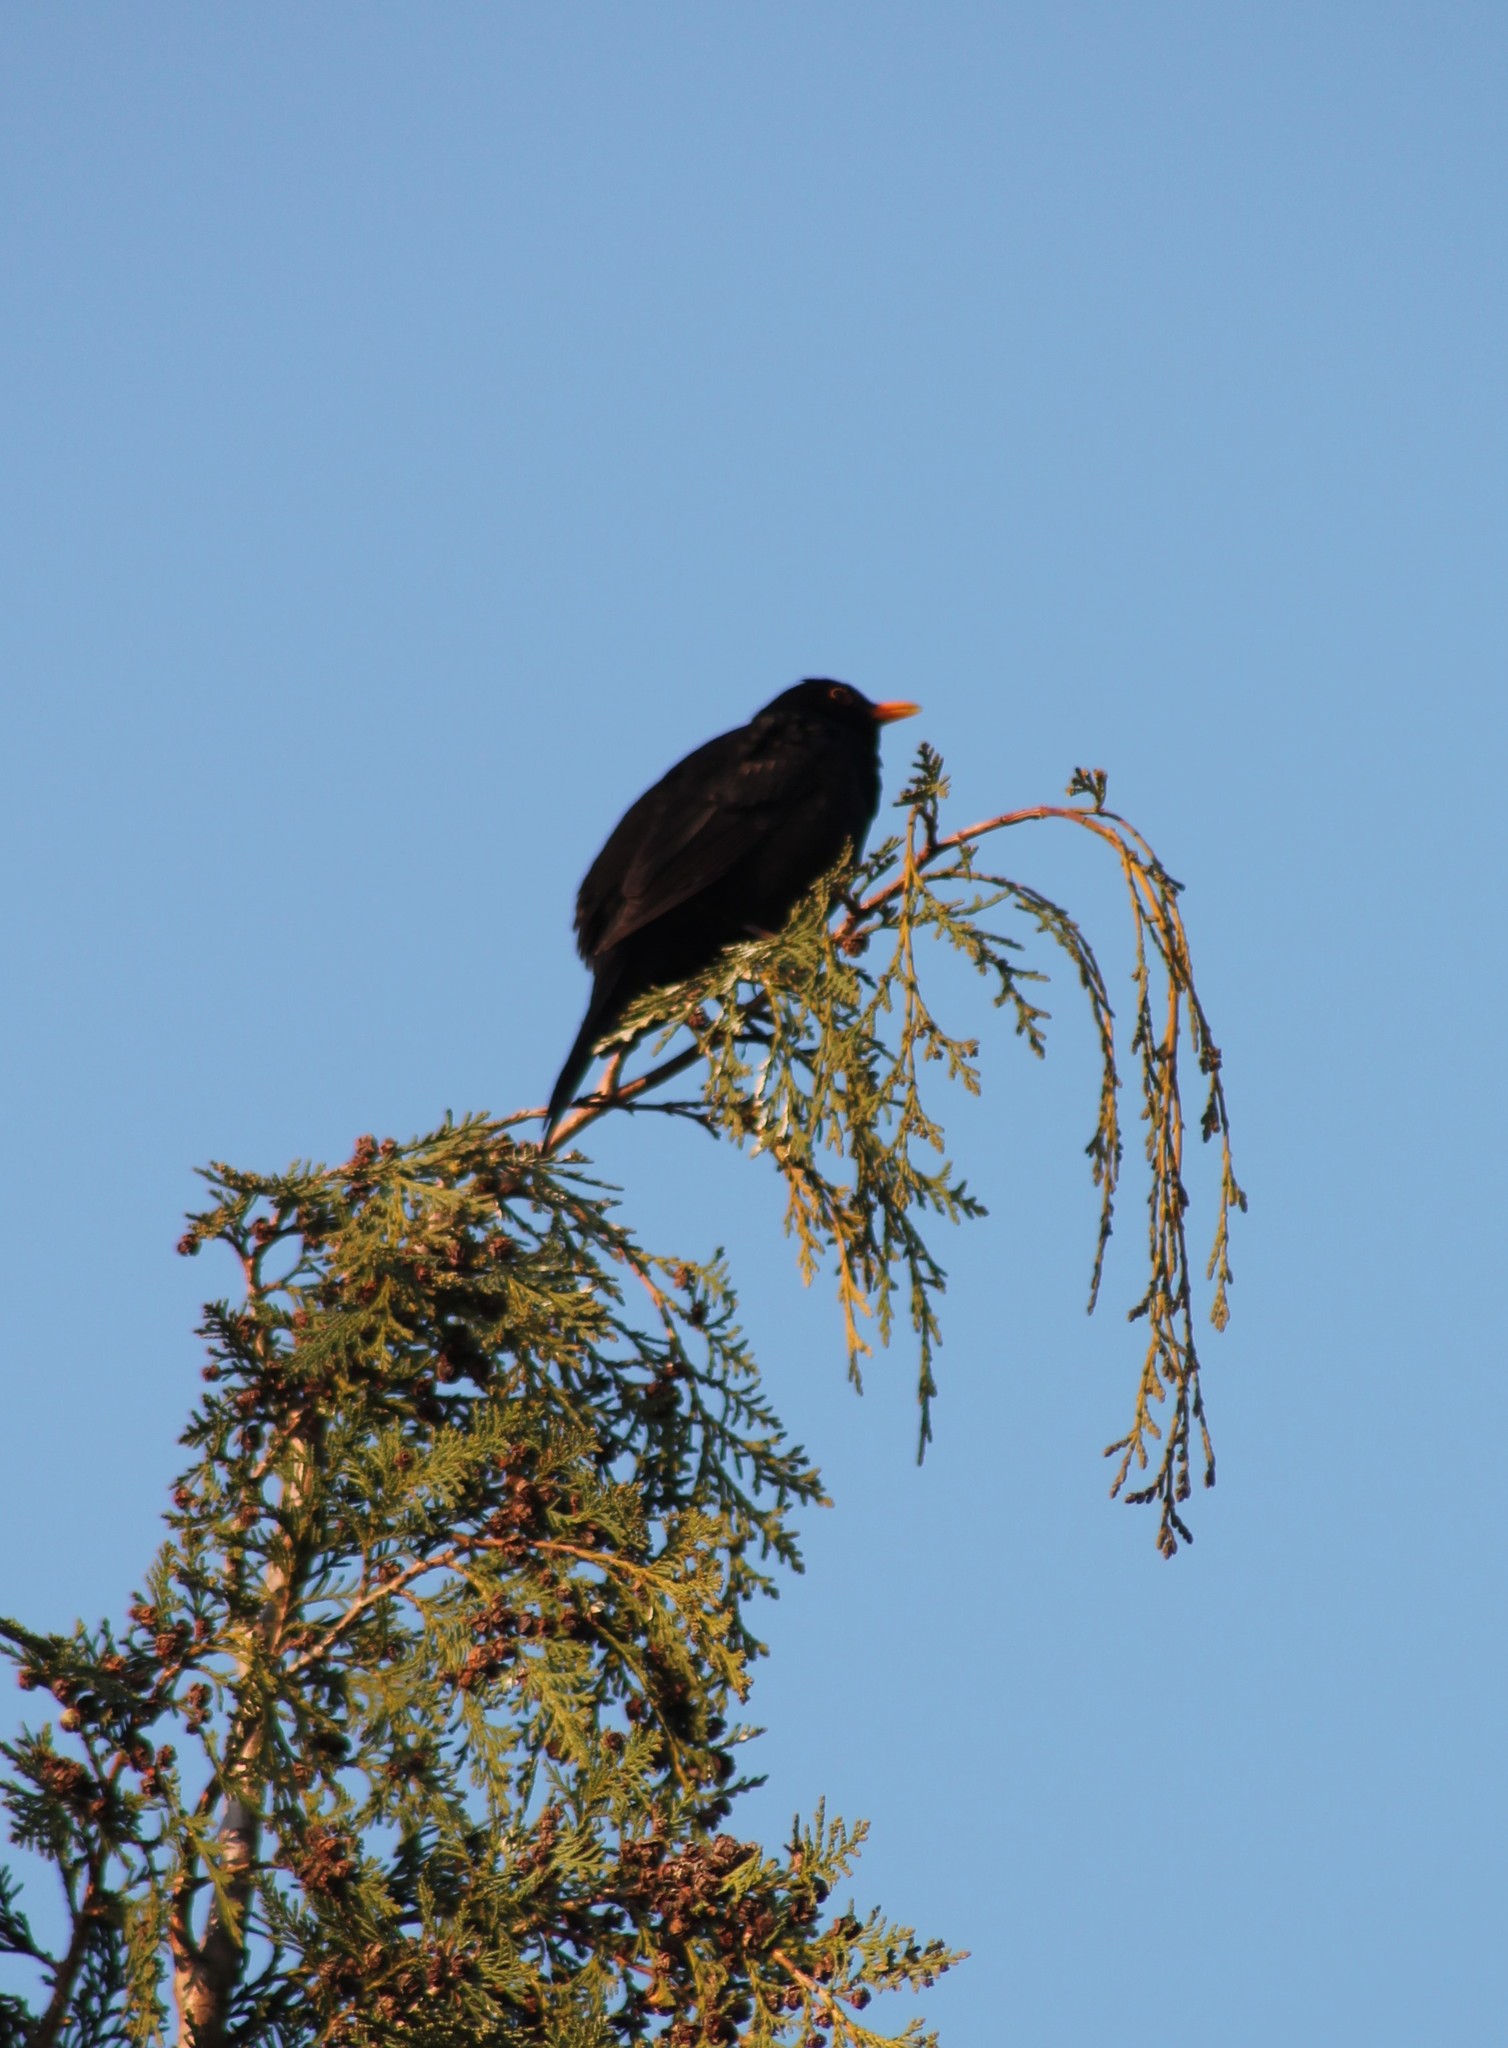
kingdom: Animalia
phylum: Chordata
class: Aves
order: Passeriformes
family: Turdidae
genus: Turdus
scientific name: Turdus merula
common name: Common blackbird
